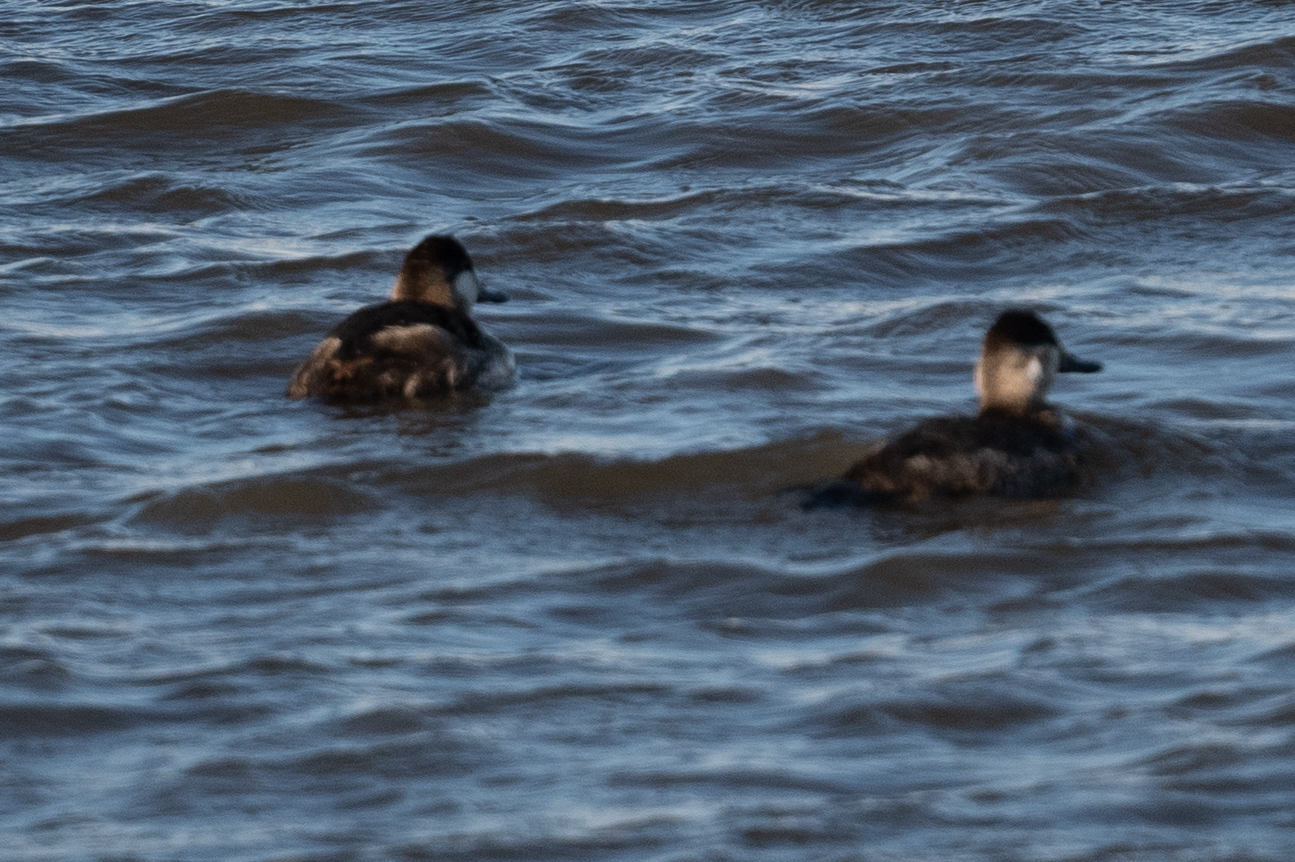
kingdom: Animalia
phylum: Chordata
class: Aves
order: Anseriformes
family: Anatidae
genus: Oxyura
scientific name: Oxyura jamaicensis
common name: Ruddy duck
